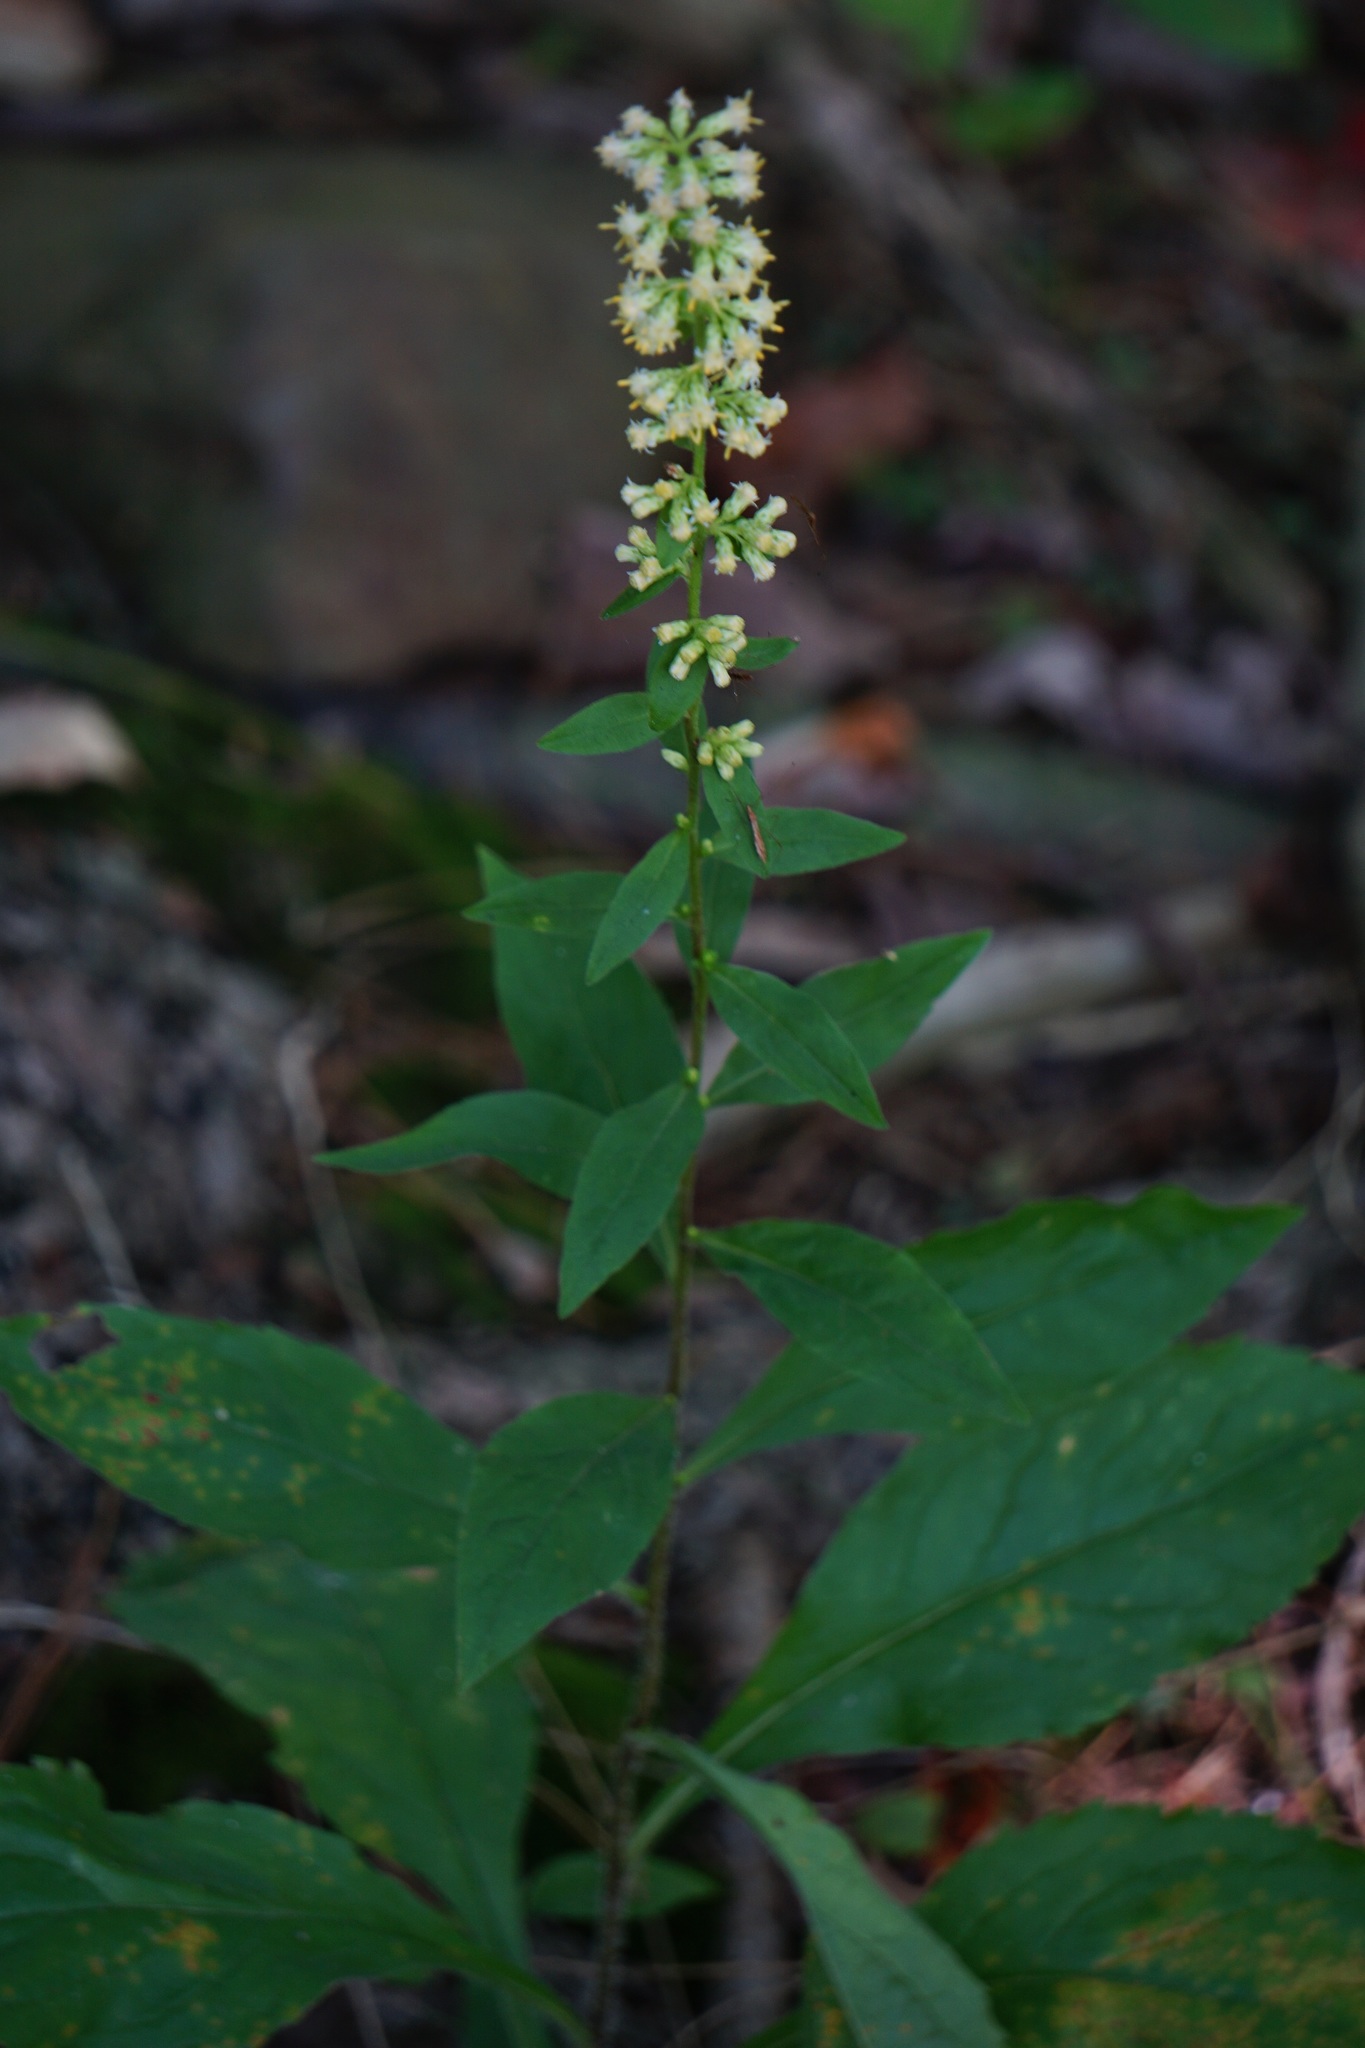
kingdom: Plantae
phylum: Tracheophyta
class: Magnoliopsida
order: Asterales
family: Asteraceae
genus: Solidago
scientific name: Solidago bicolor
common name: Silverrod
